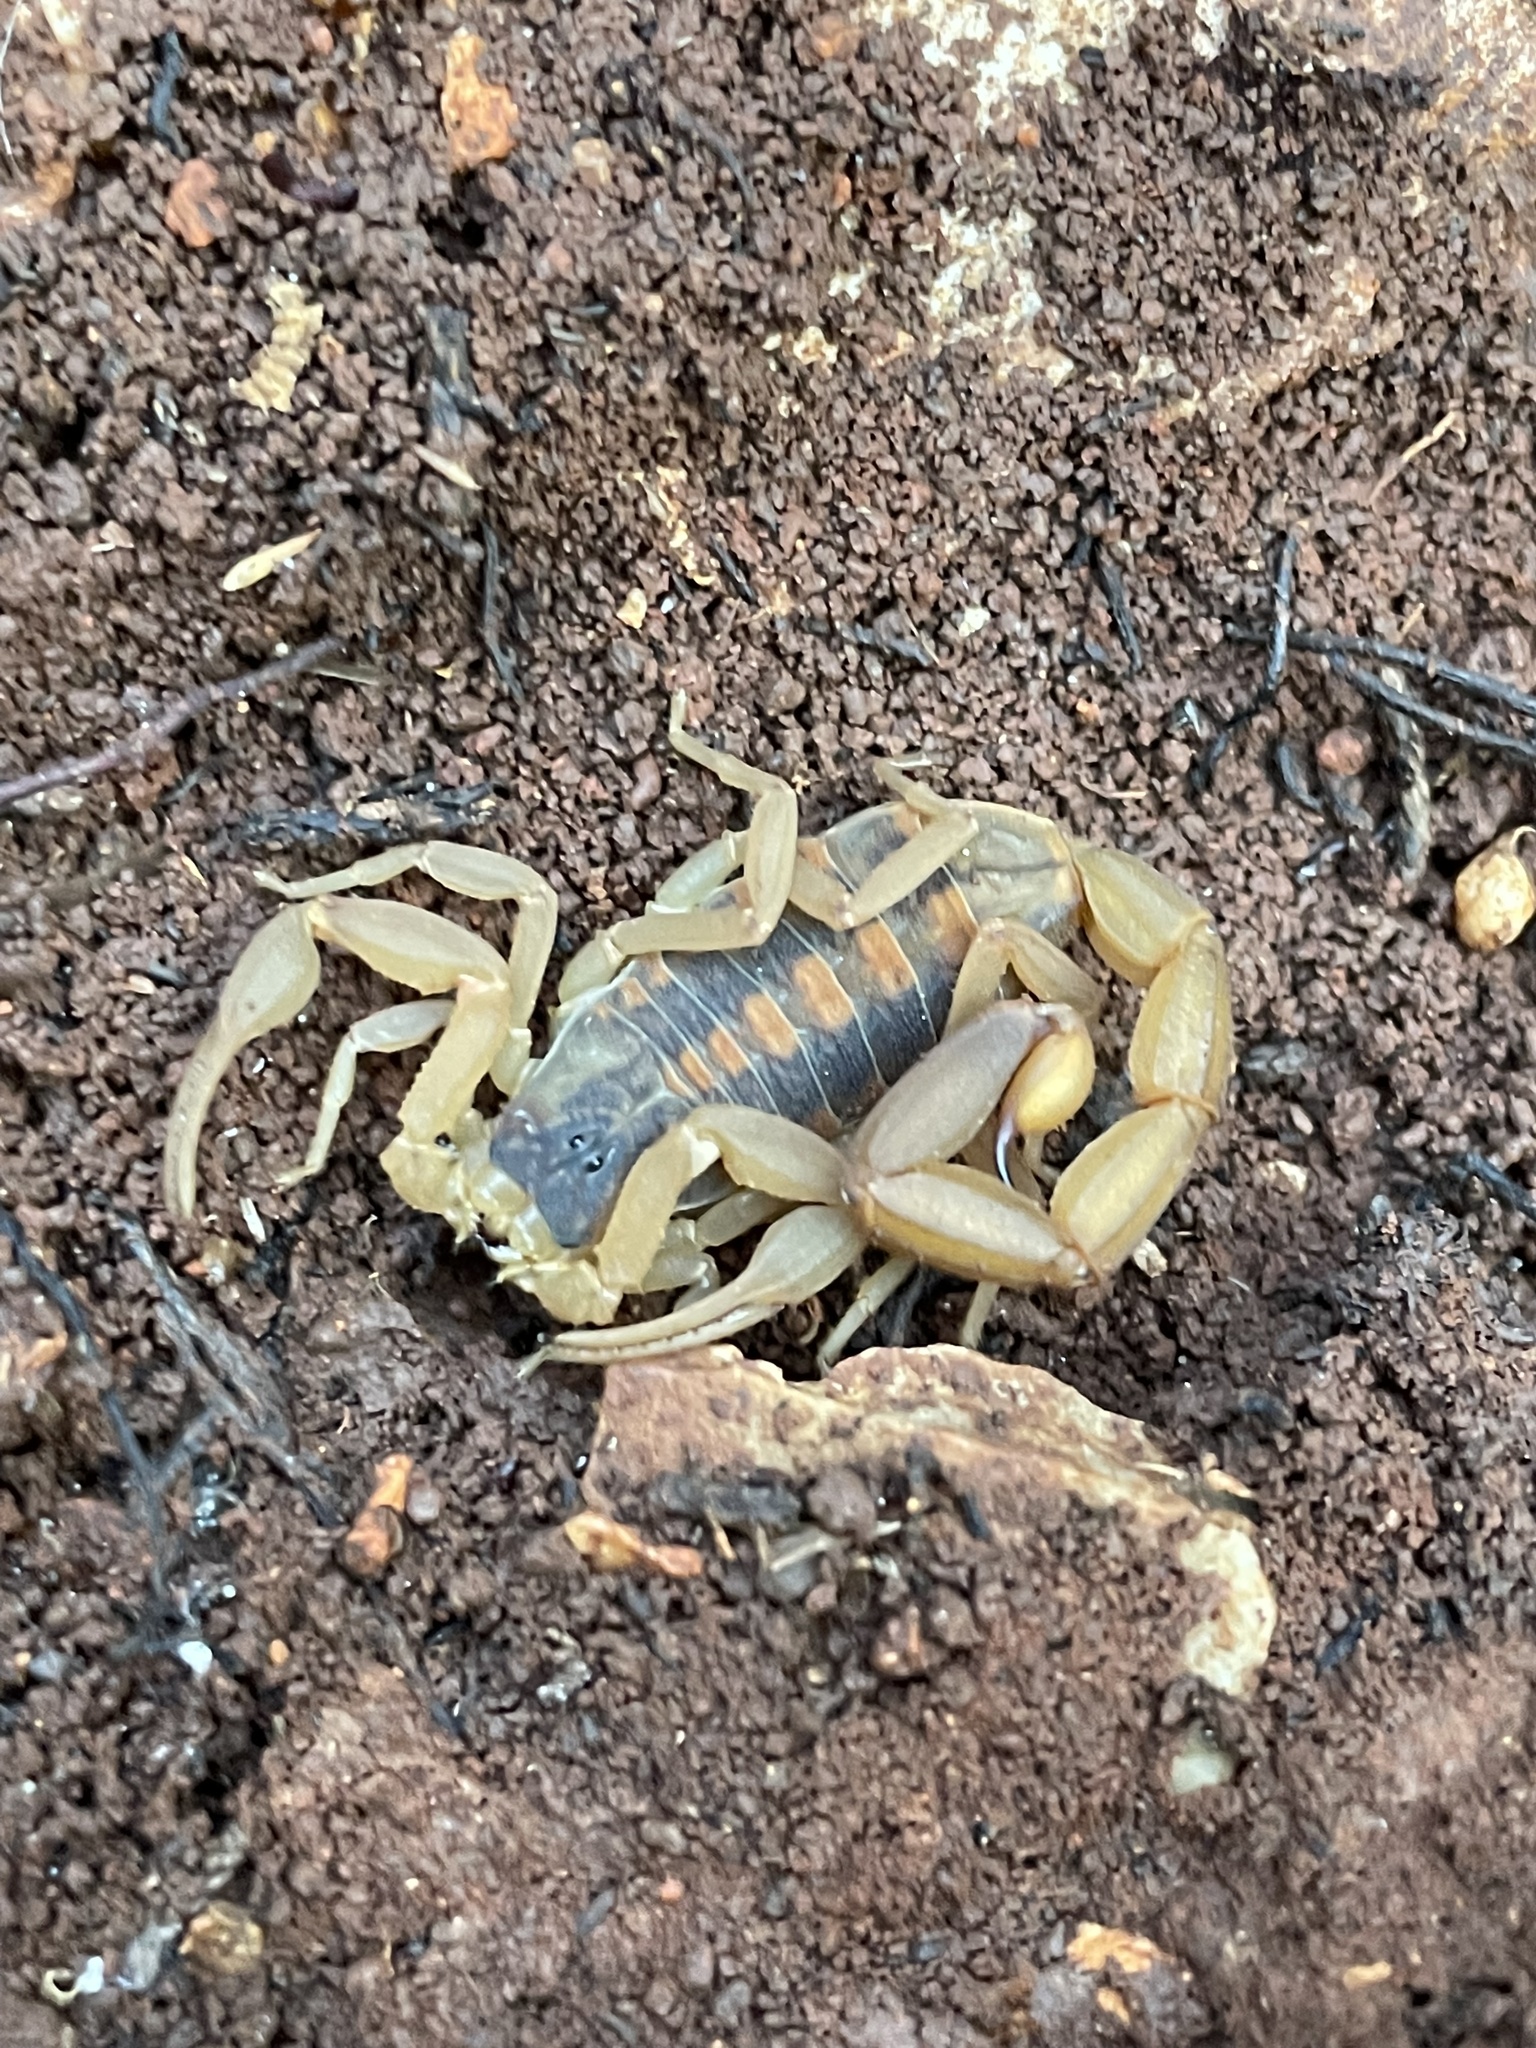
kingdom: Animalia
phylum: Arthropoda
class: Arachnida
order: Scorpiones
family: Buthidae
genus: Centruroides
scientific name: Centruroides vittatus
